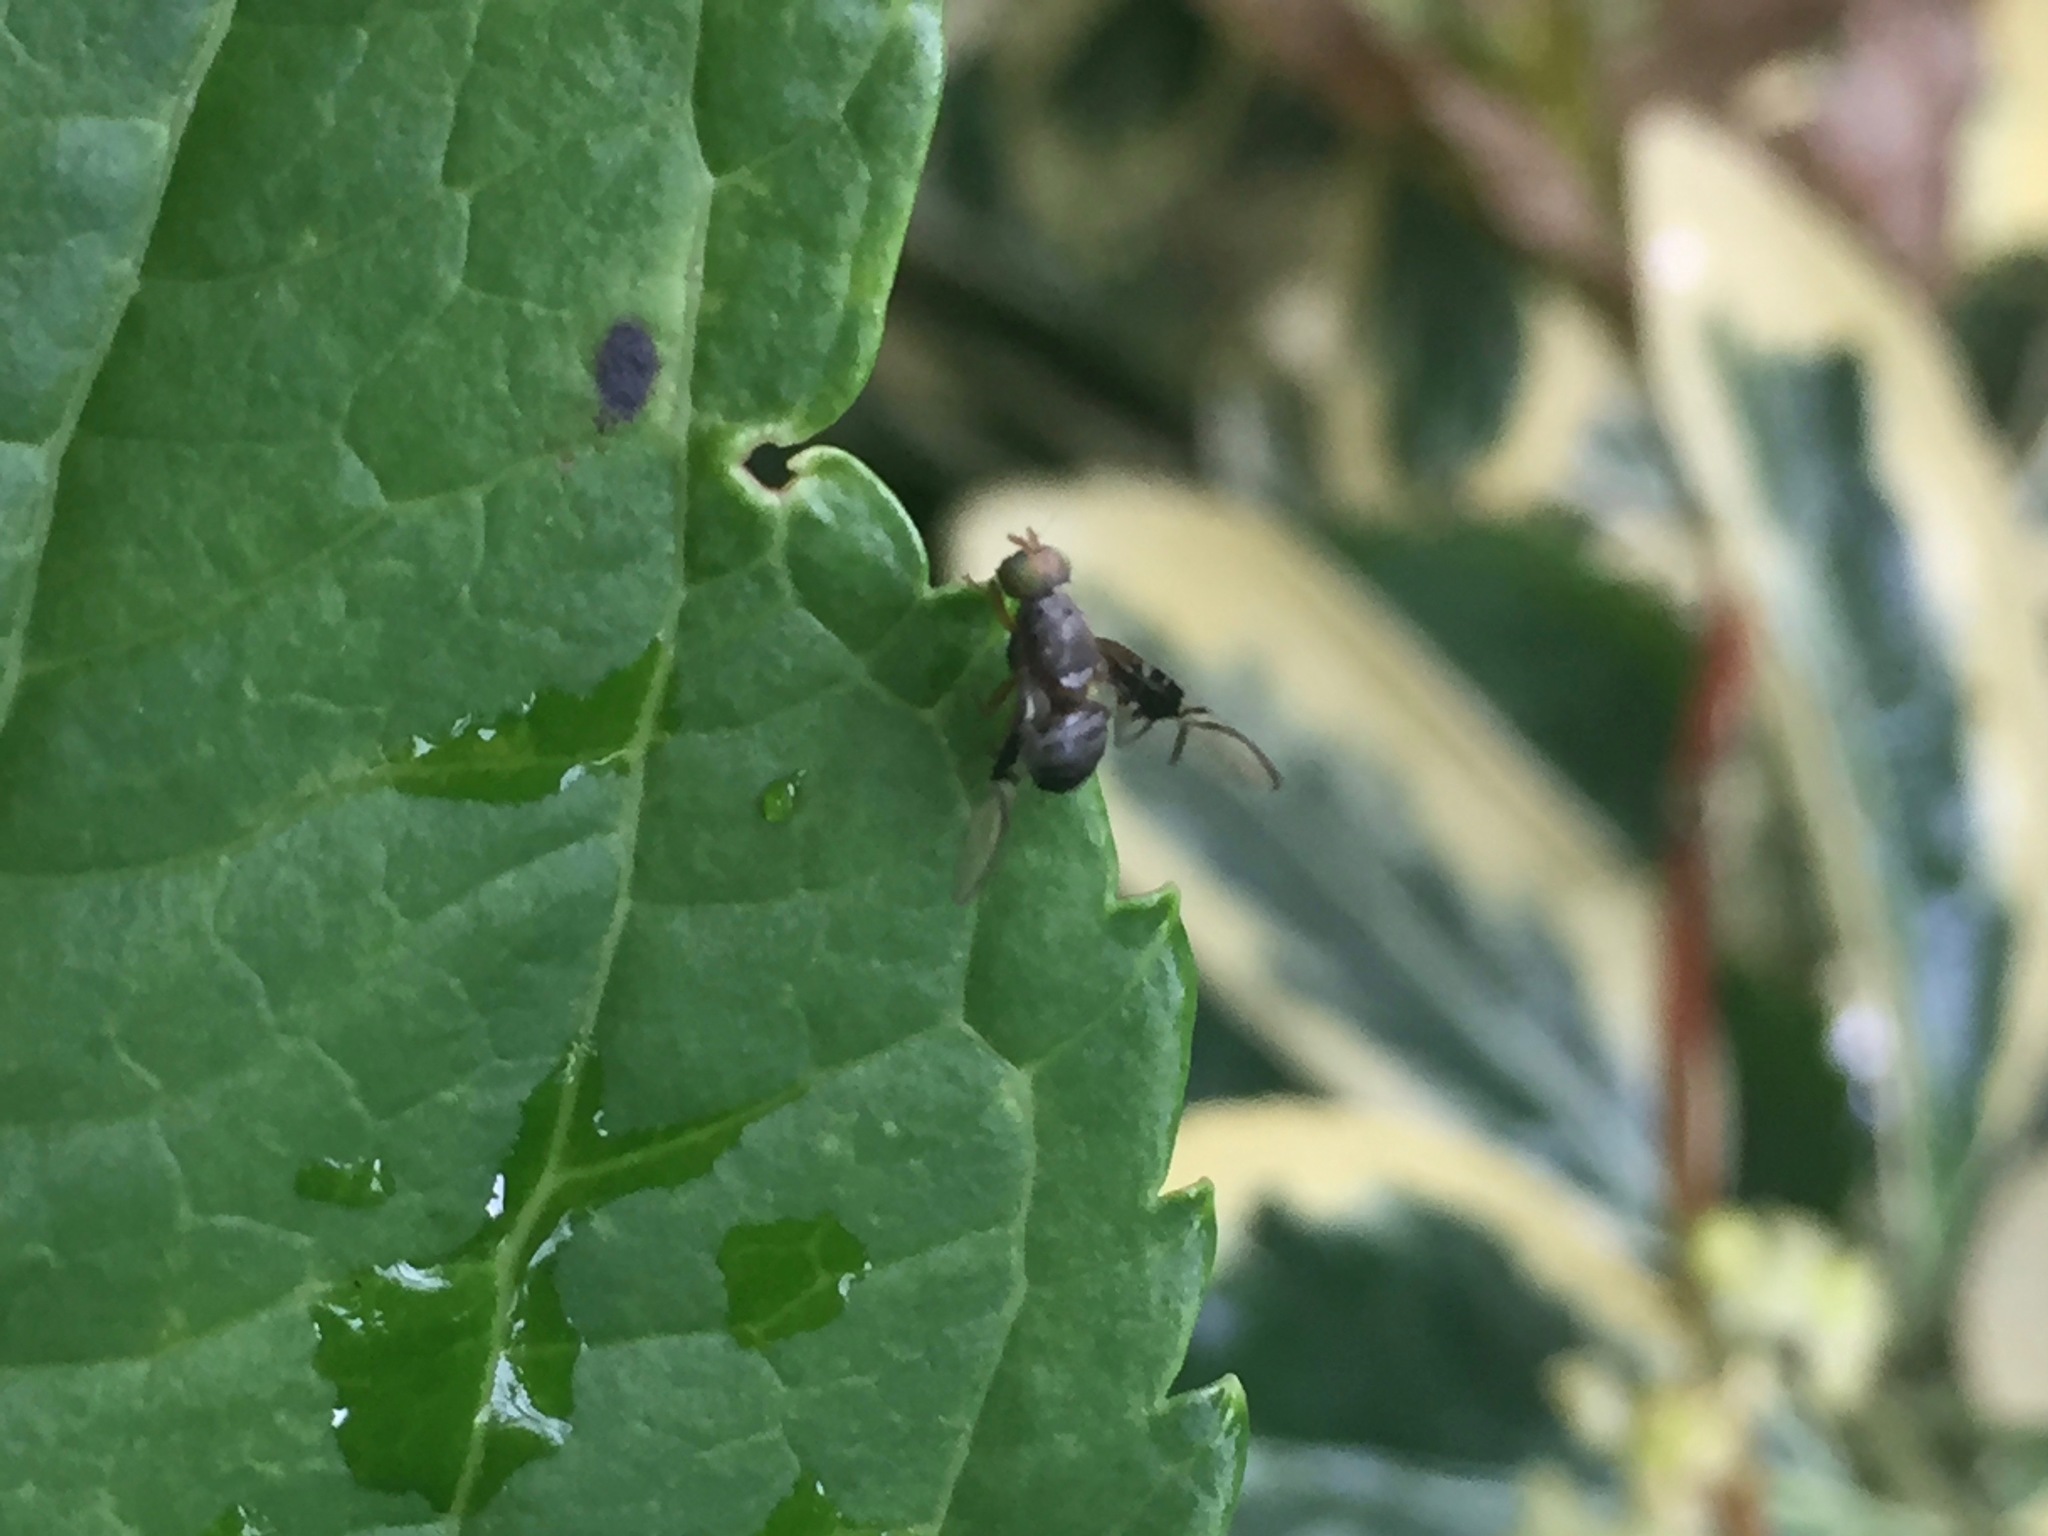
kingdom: Animalia
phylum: Arthropoda
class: Insecta
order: Diptera
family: Tephritidae
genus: Anomoia
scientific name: Anomoia purmunda
